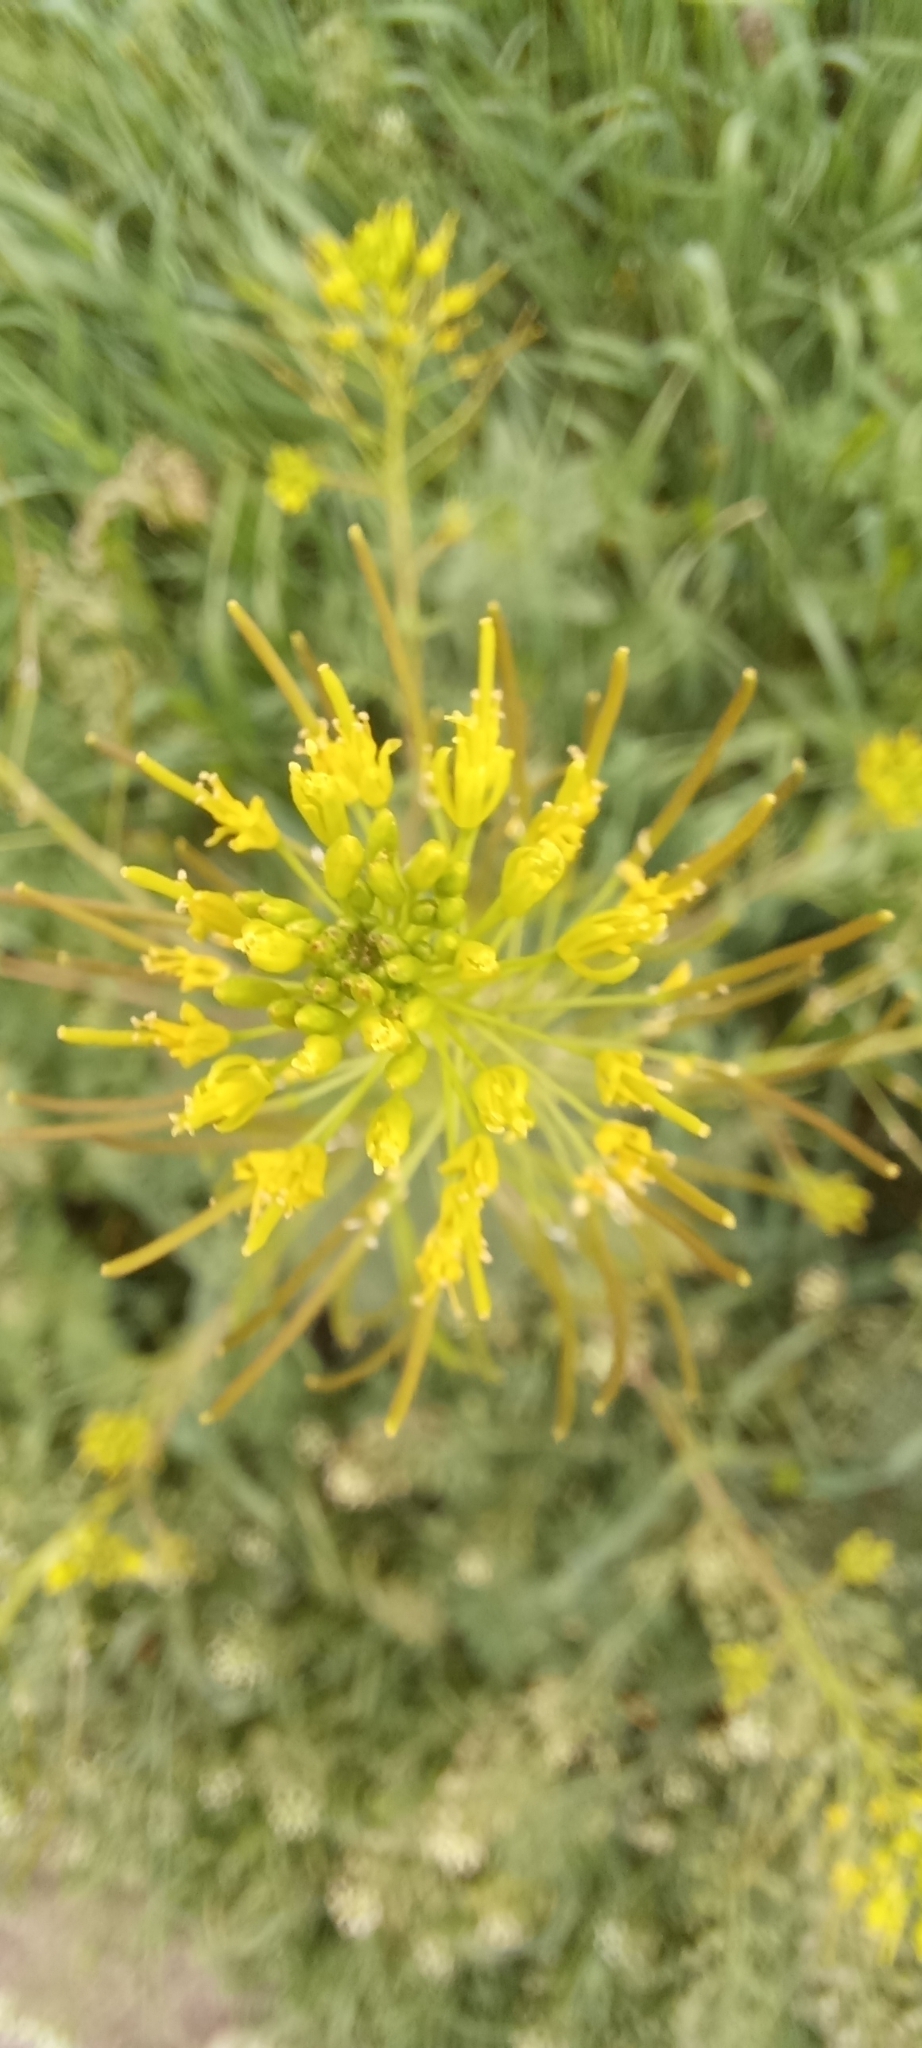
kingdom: Plantae
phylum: Tracheophyta
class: Magnoliopsida
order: Brassicales
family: Brassicaceae
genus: Descurainia
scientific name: Descurainia sophia
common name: Flixweed
